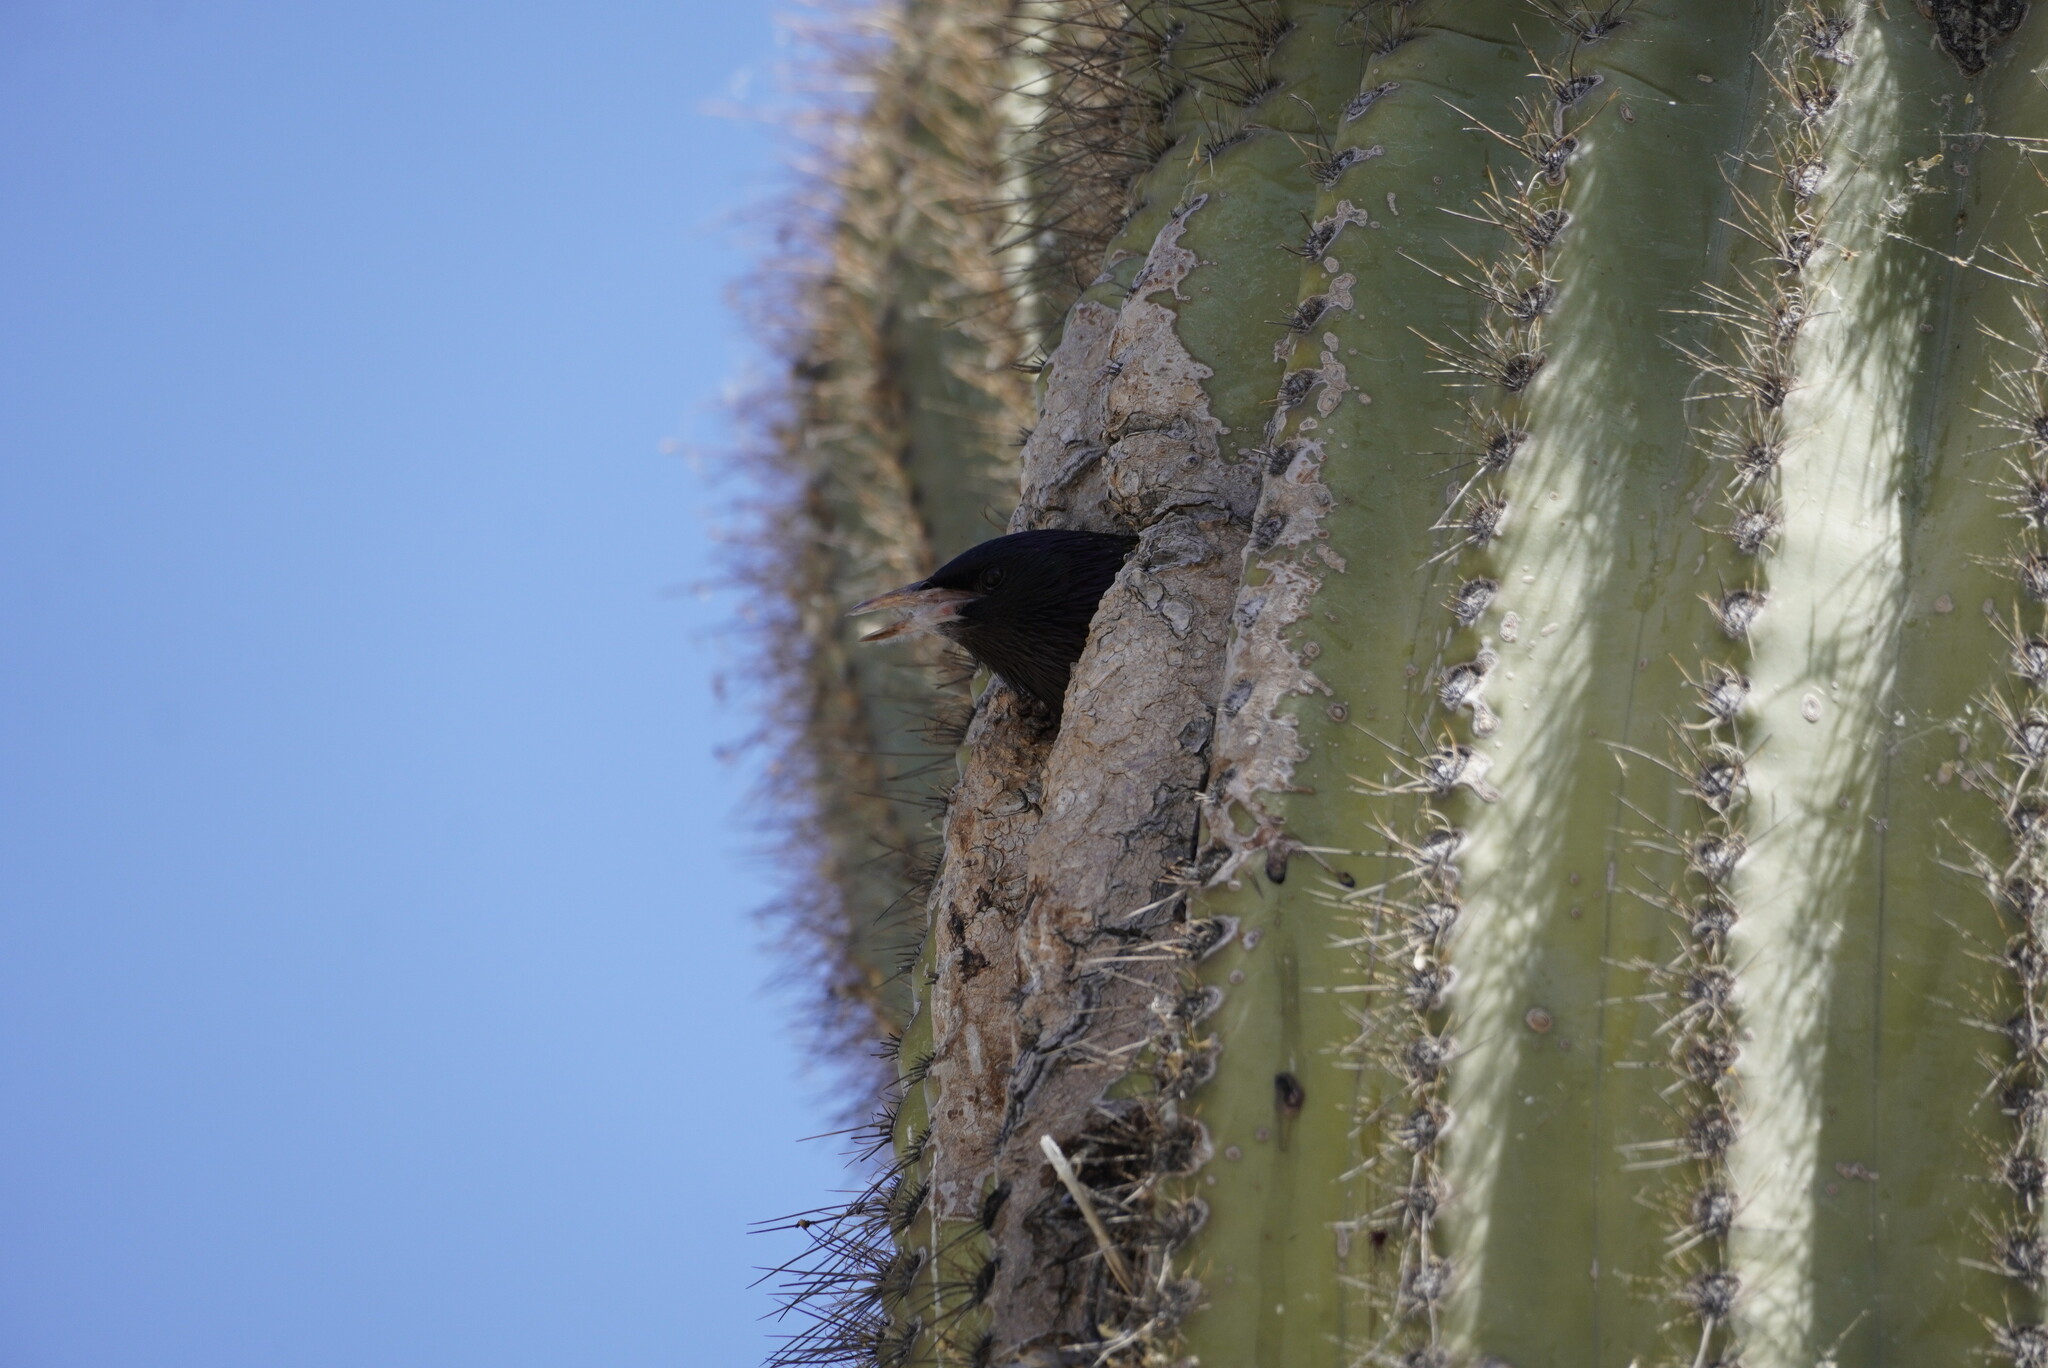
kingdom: Animalia
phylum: Chordata
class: Aves
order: Passeriformes
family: Sturnidae
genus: Sturnus
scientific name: Sturnus vulgaris
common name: Common starling
